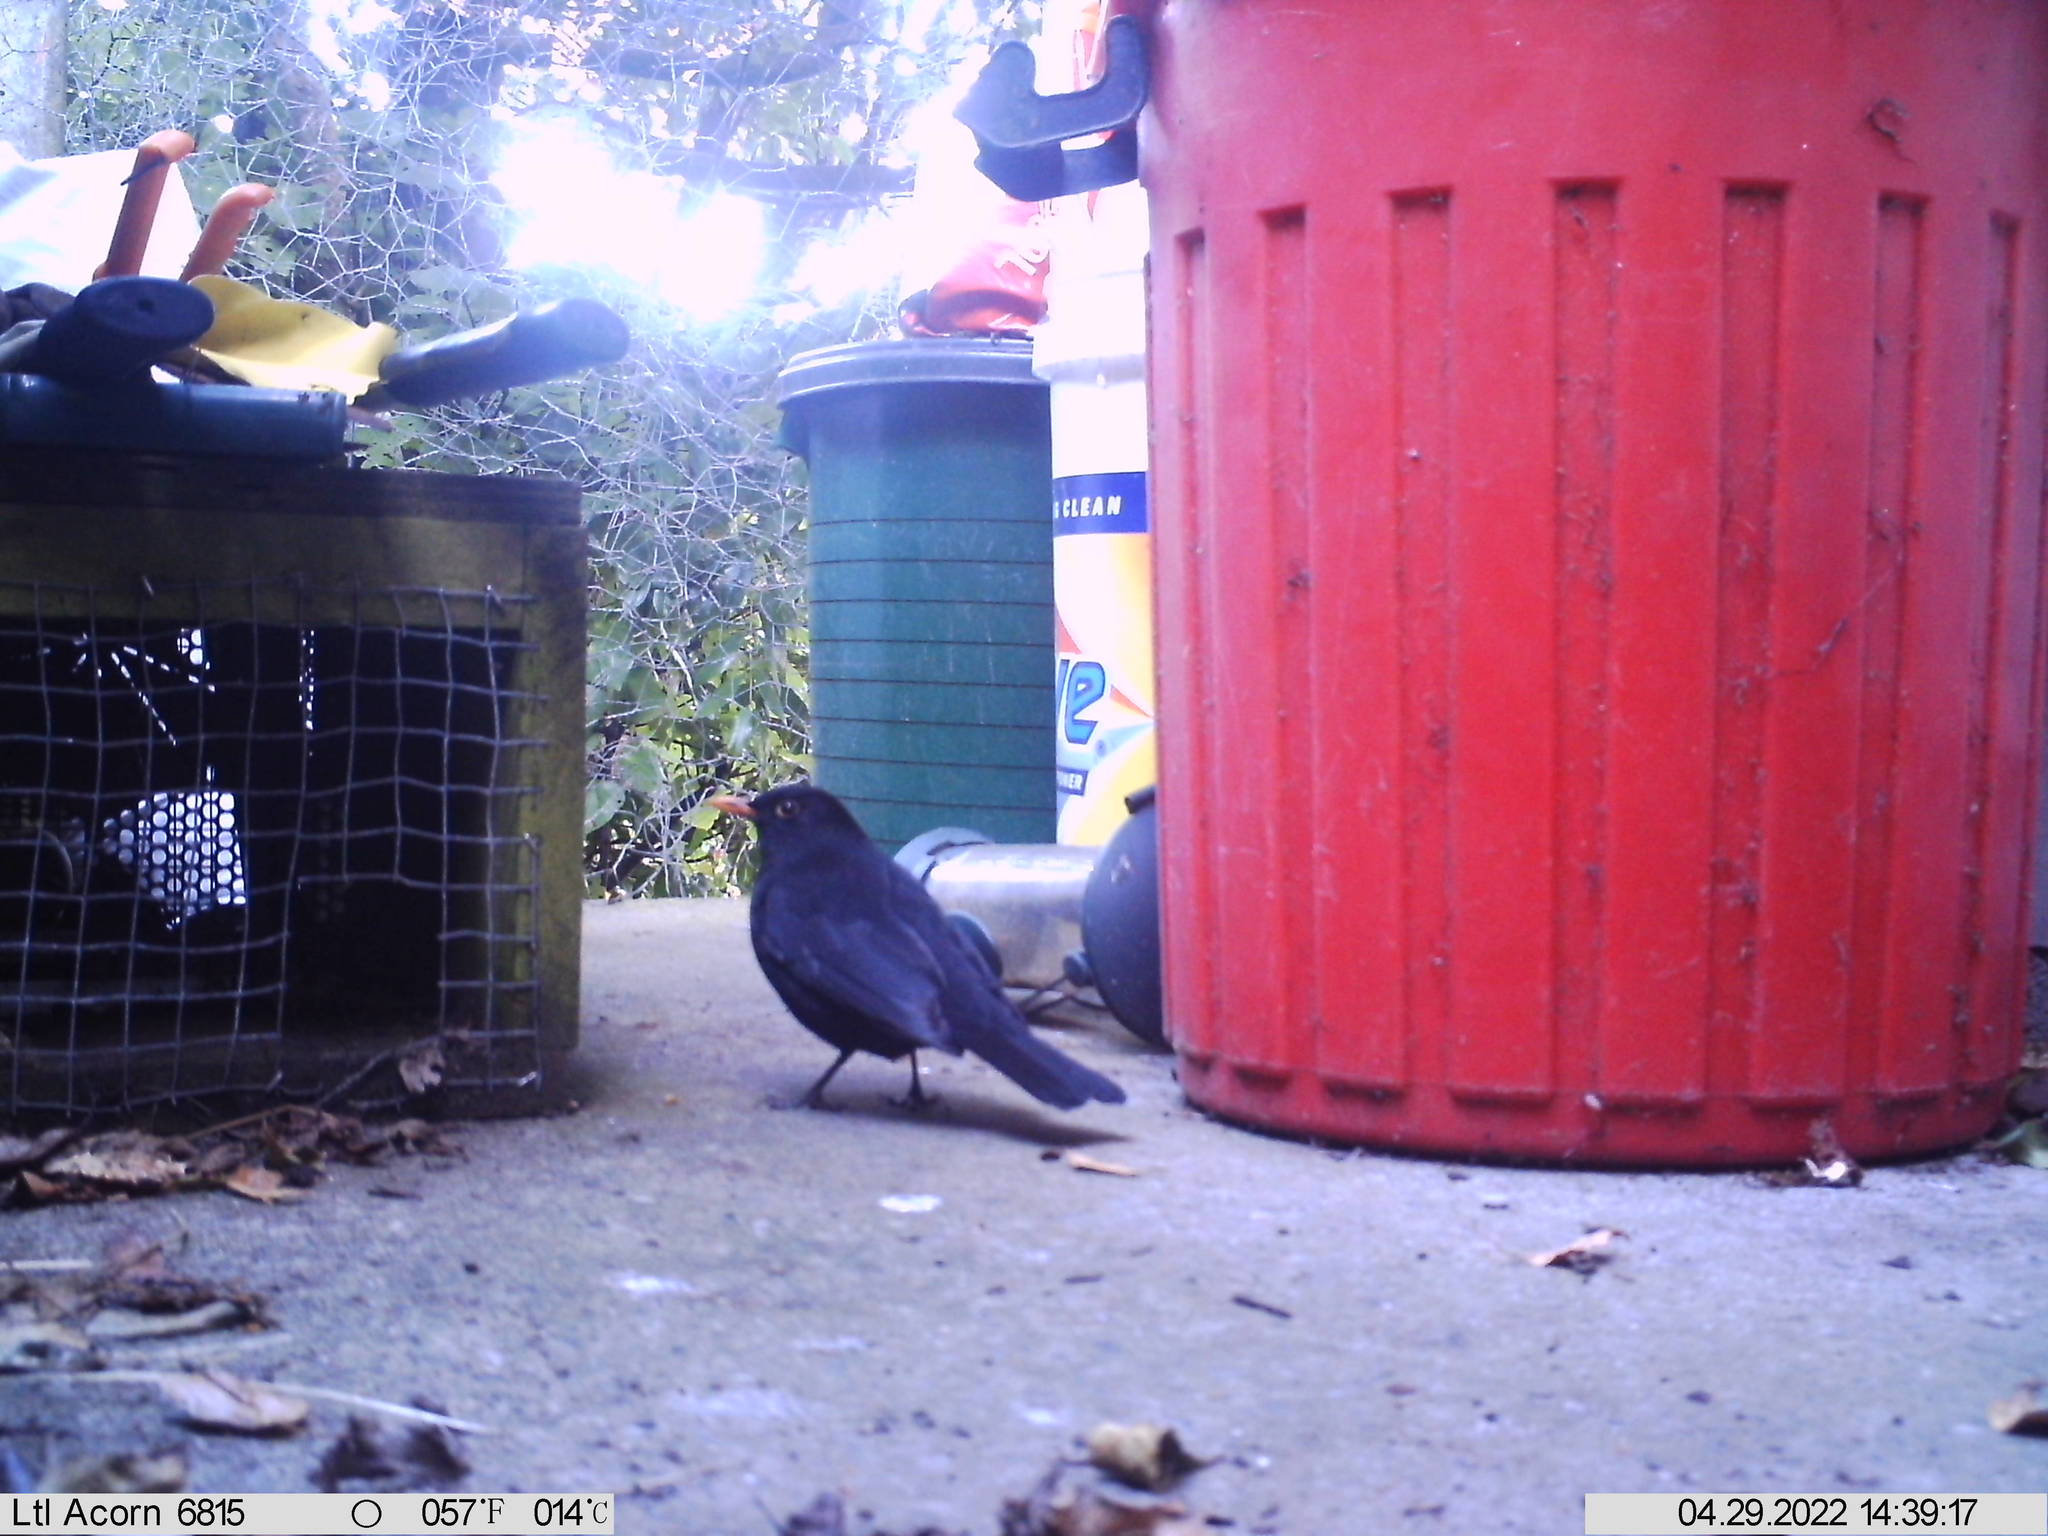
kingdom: Animalia
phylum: Chordata
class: Aves
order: Passeriformes
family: Turdidae
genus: Turdus
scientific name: Turdus merula
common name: Common blackbird
